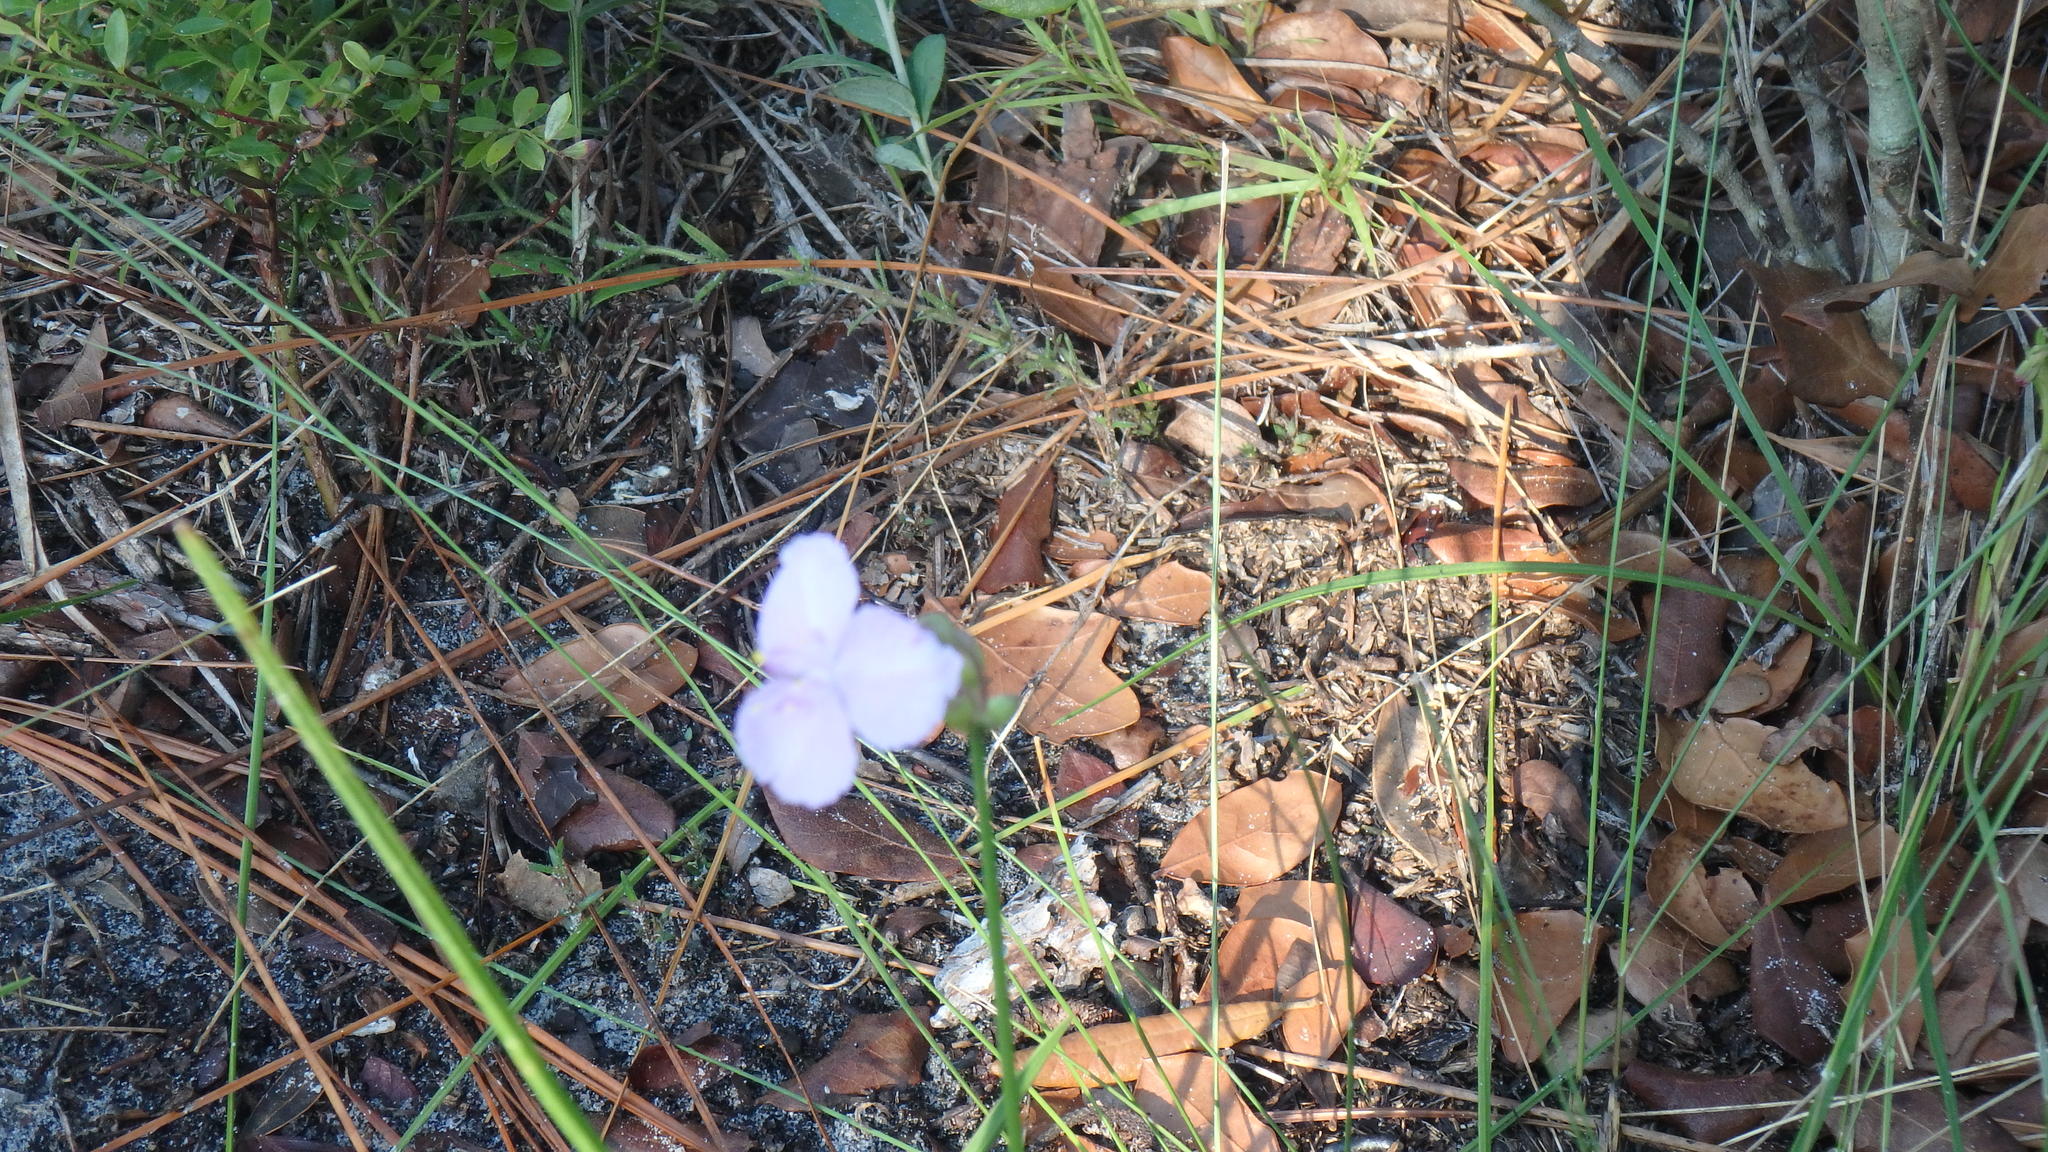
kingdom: Plantae
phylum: Tracheophyta
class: Liliopsida
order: Commelinales
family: Commelinaceae
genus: Callisia
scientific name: Callisia ornata
